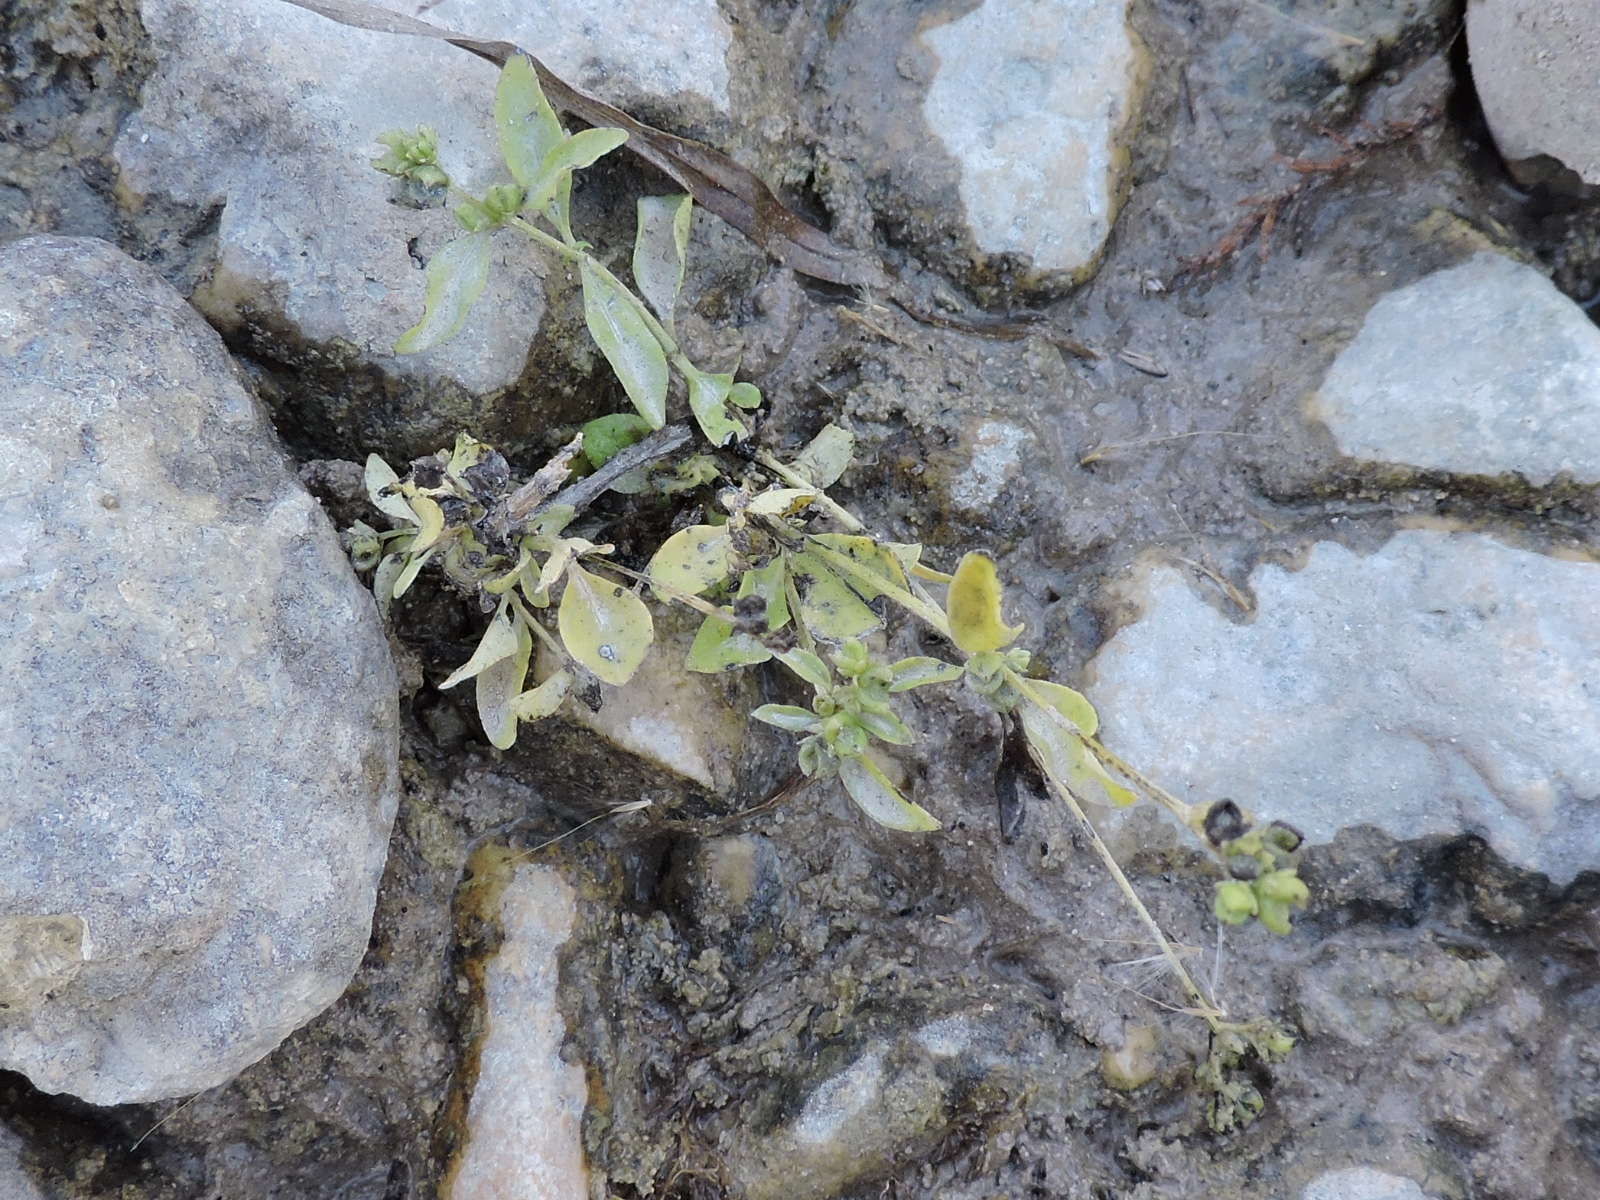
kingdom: Plantae
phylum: Tracheophyta
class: Magnoliopsida
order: Gentianales
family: Loganiaceae
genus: Mitreola
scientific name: Mitreola petiolata
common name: Lax hornpod
